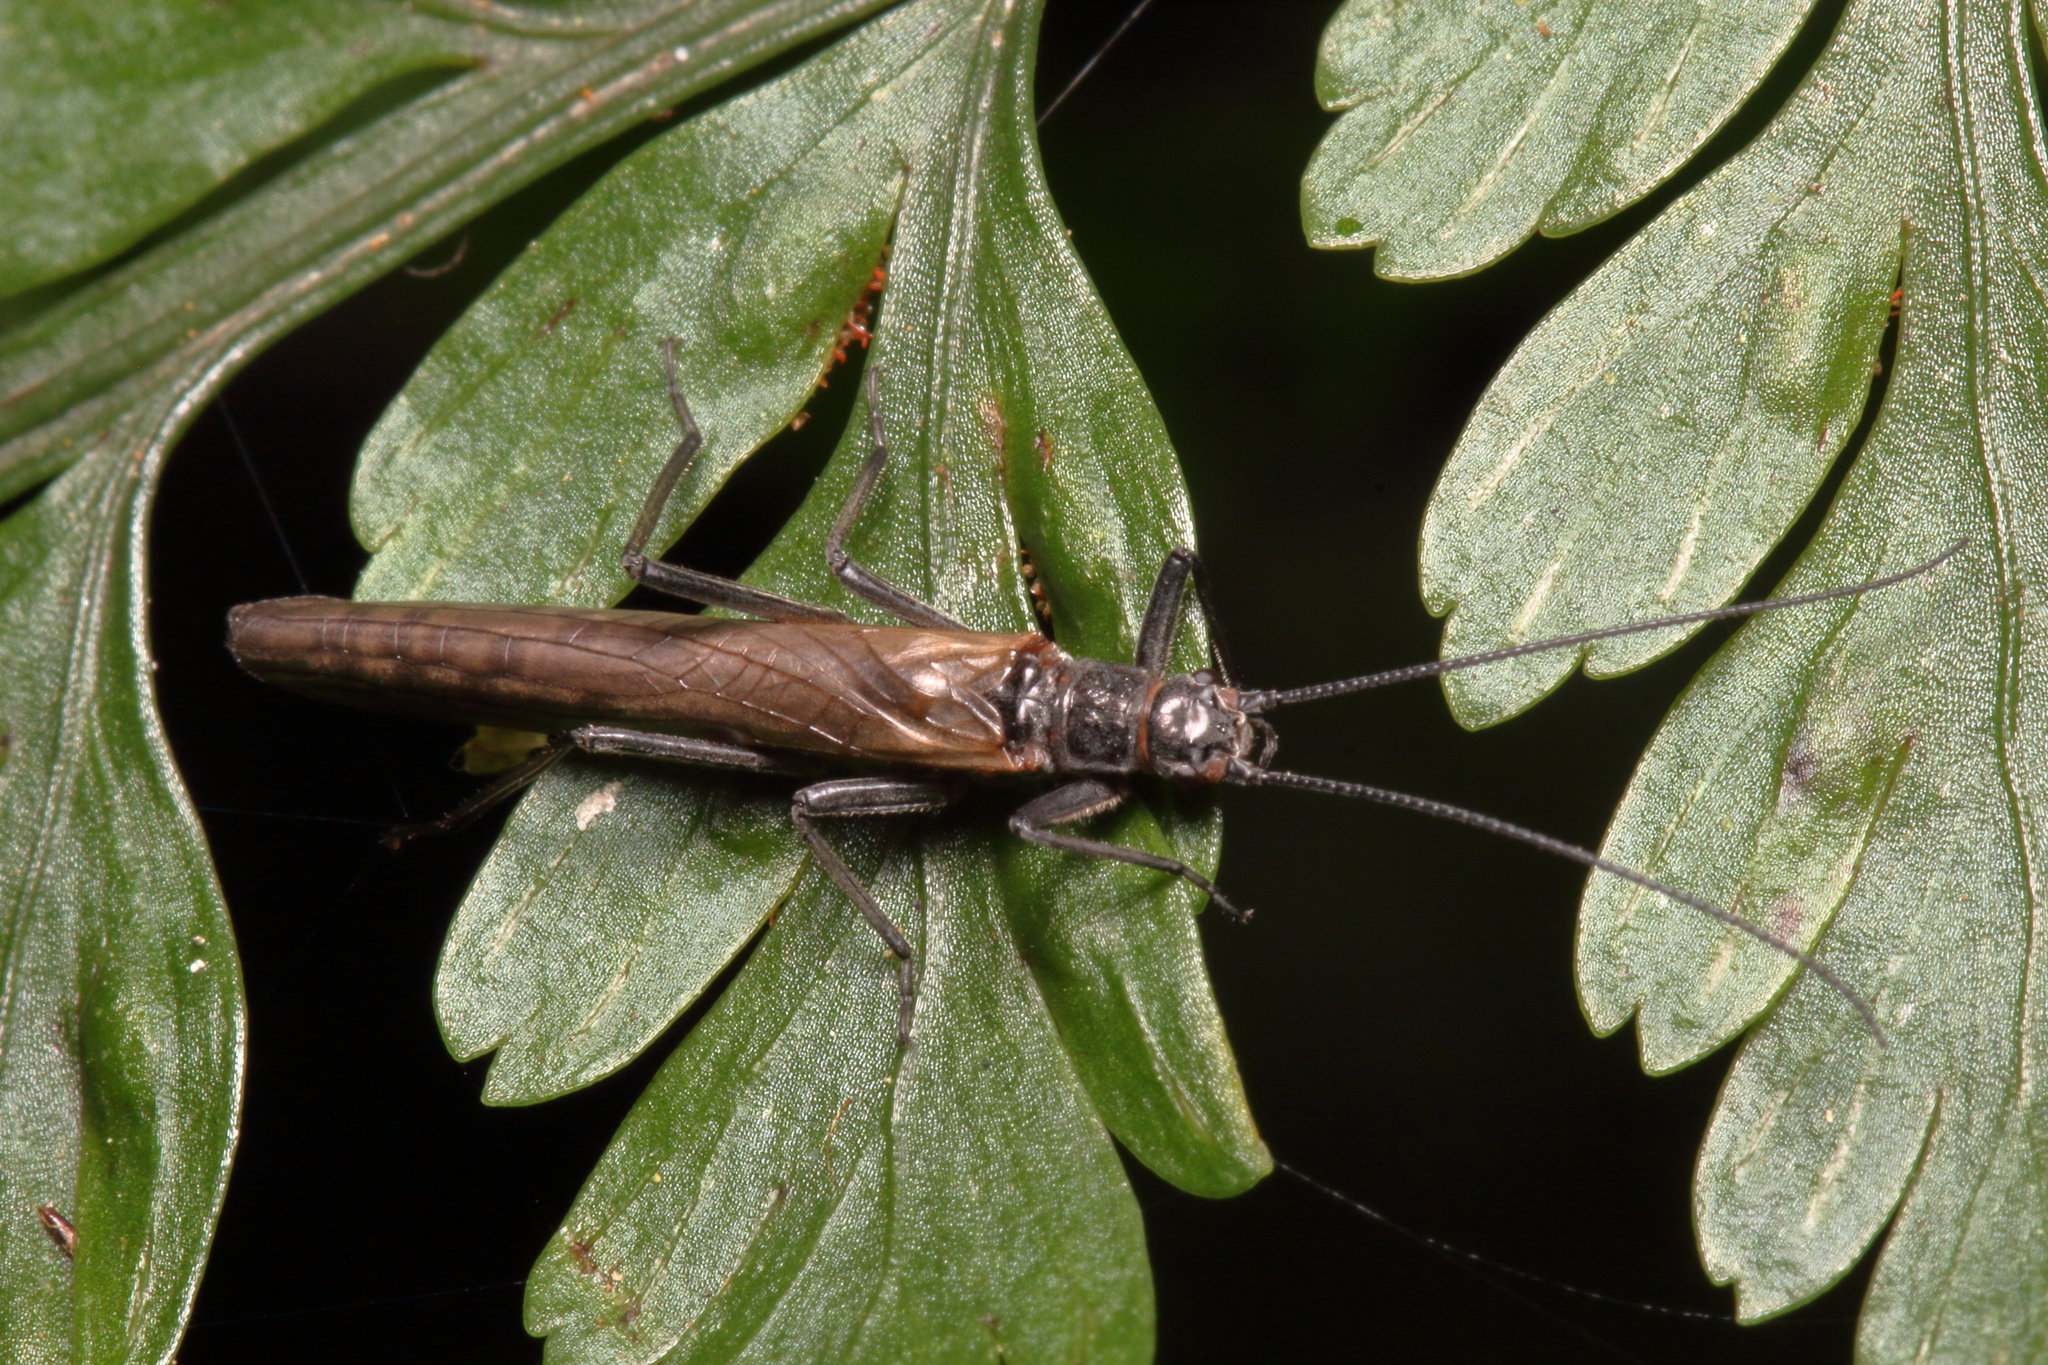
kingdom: Animalia
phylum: Arthropoda
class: Insecta
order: Plecoptera
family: Gripopterygidae
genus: Zelandobius
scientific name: Zelandobius wardi
